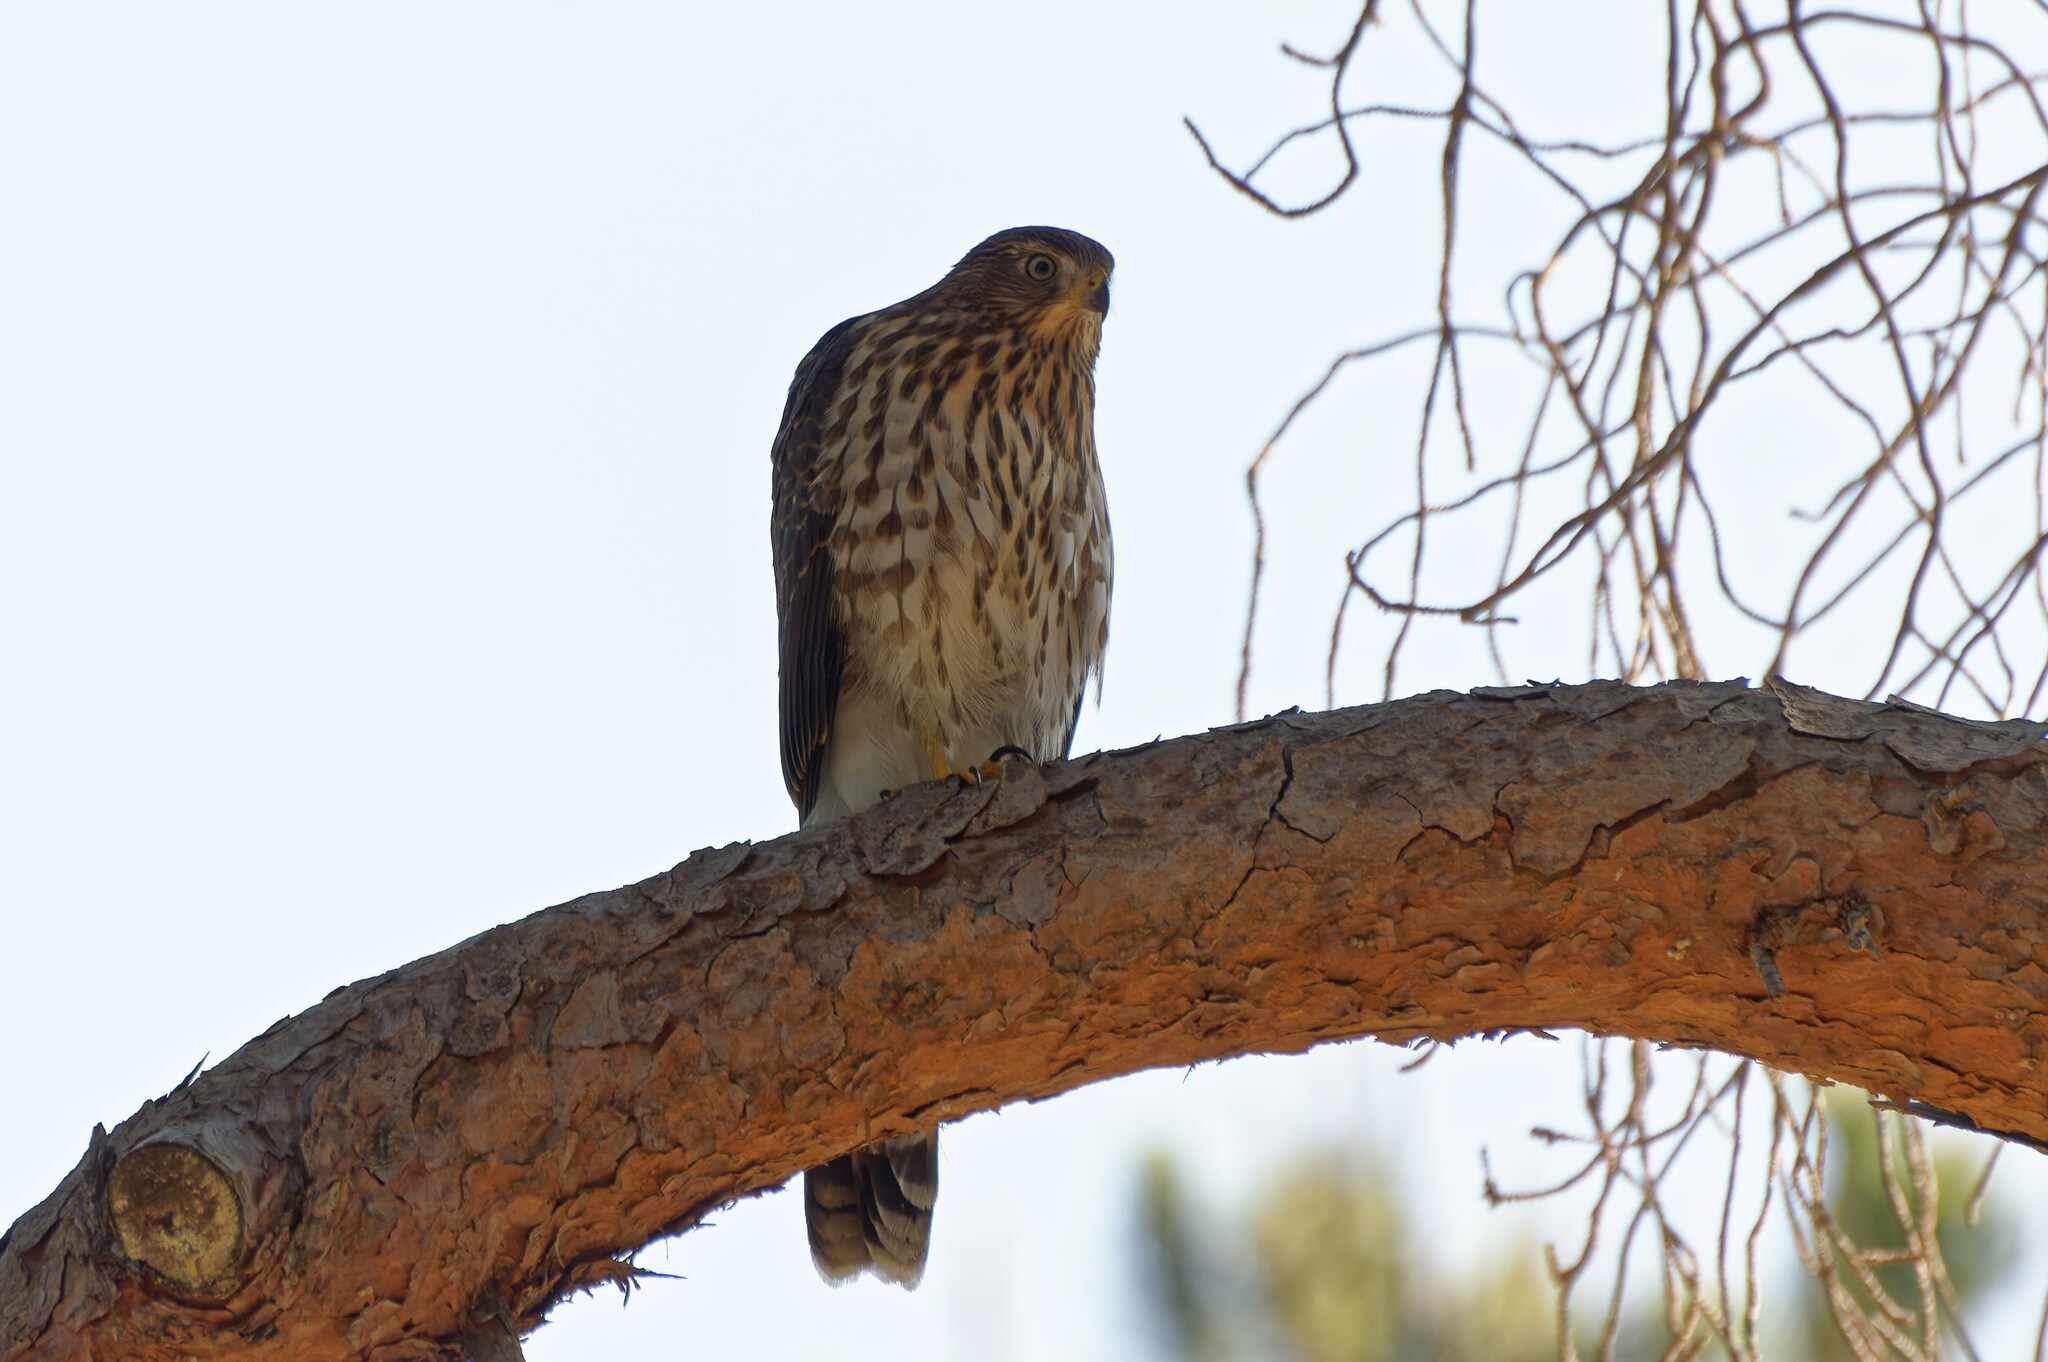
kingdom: Animalia
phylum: Chordata
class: Aves
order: Accipitriformes
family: Accipitridae
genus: Accipiter
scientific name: Accipiter cooperii
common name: Cooper's hawk
